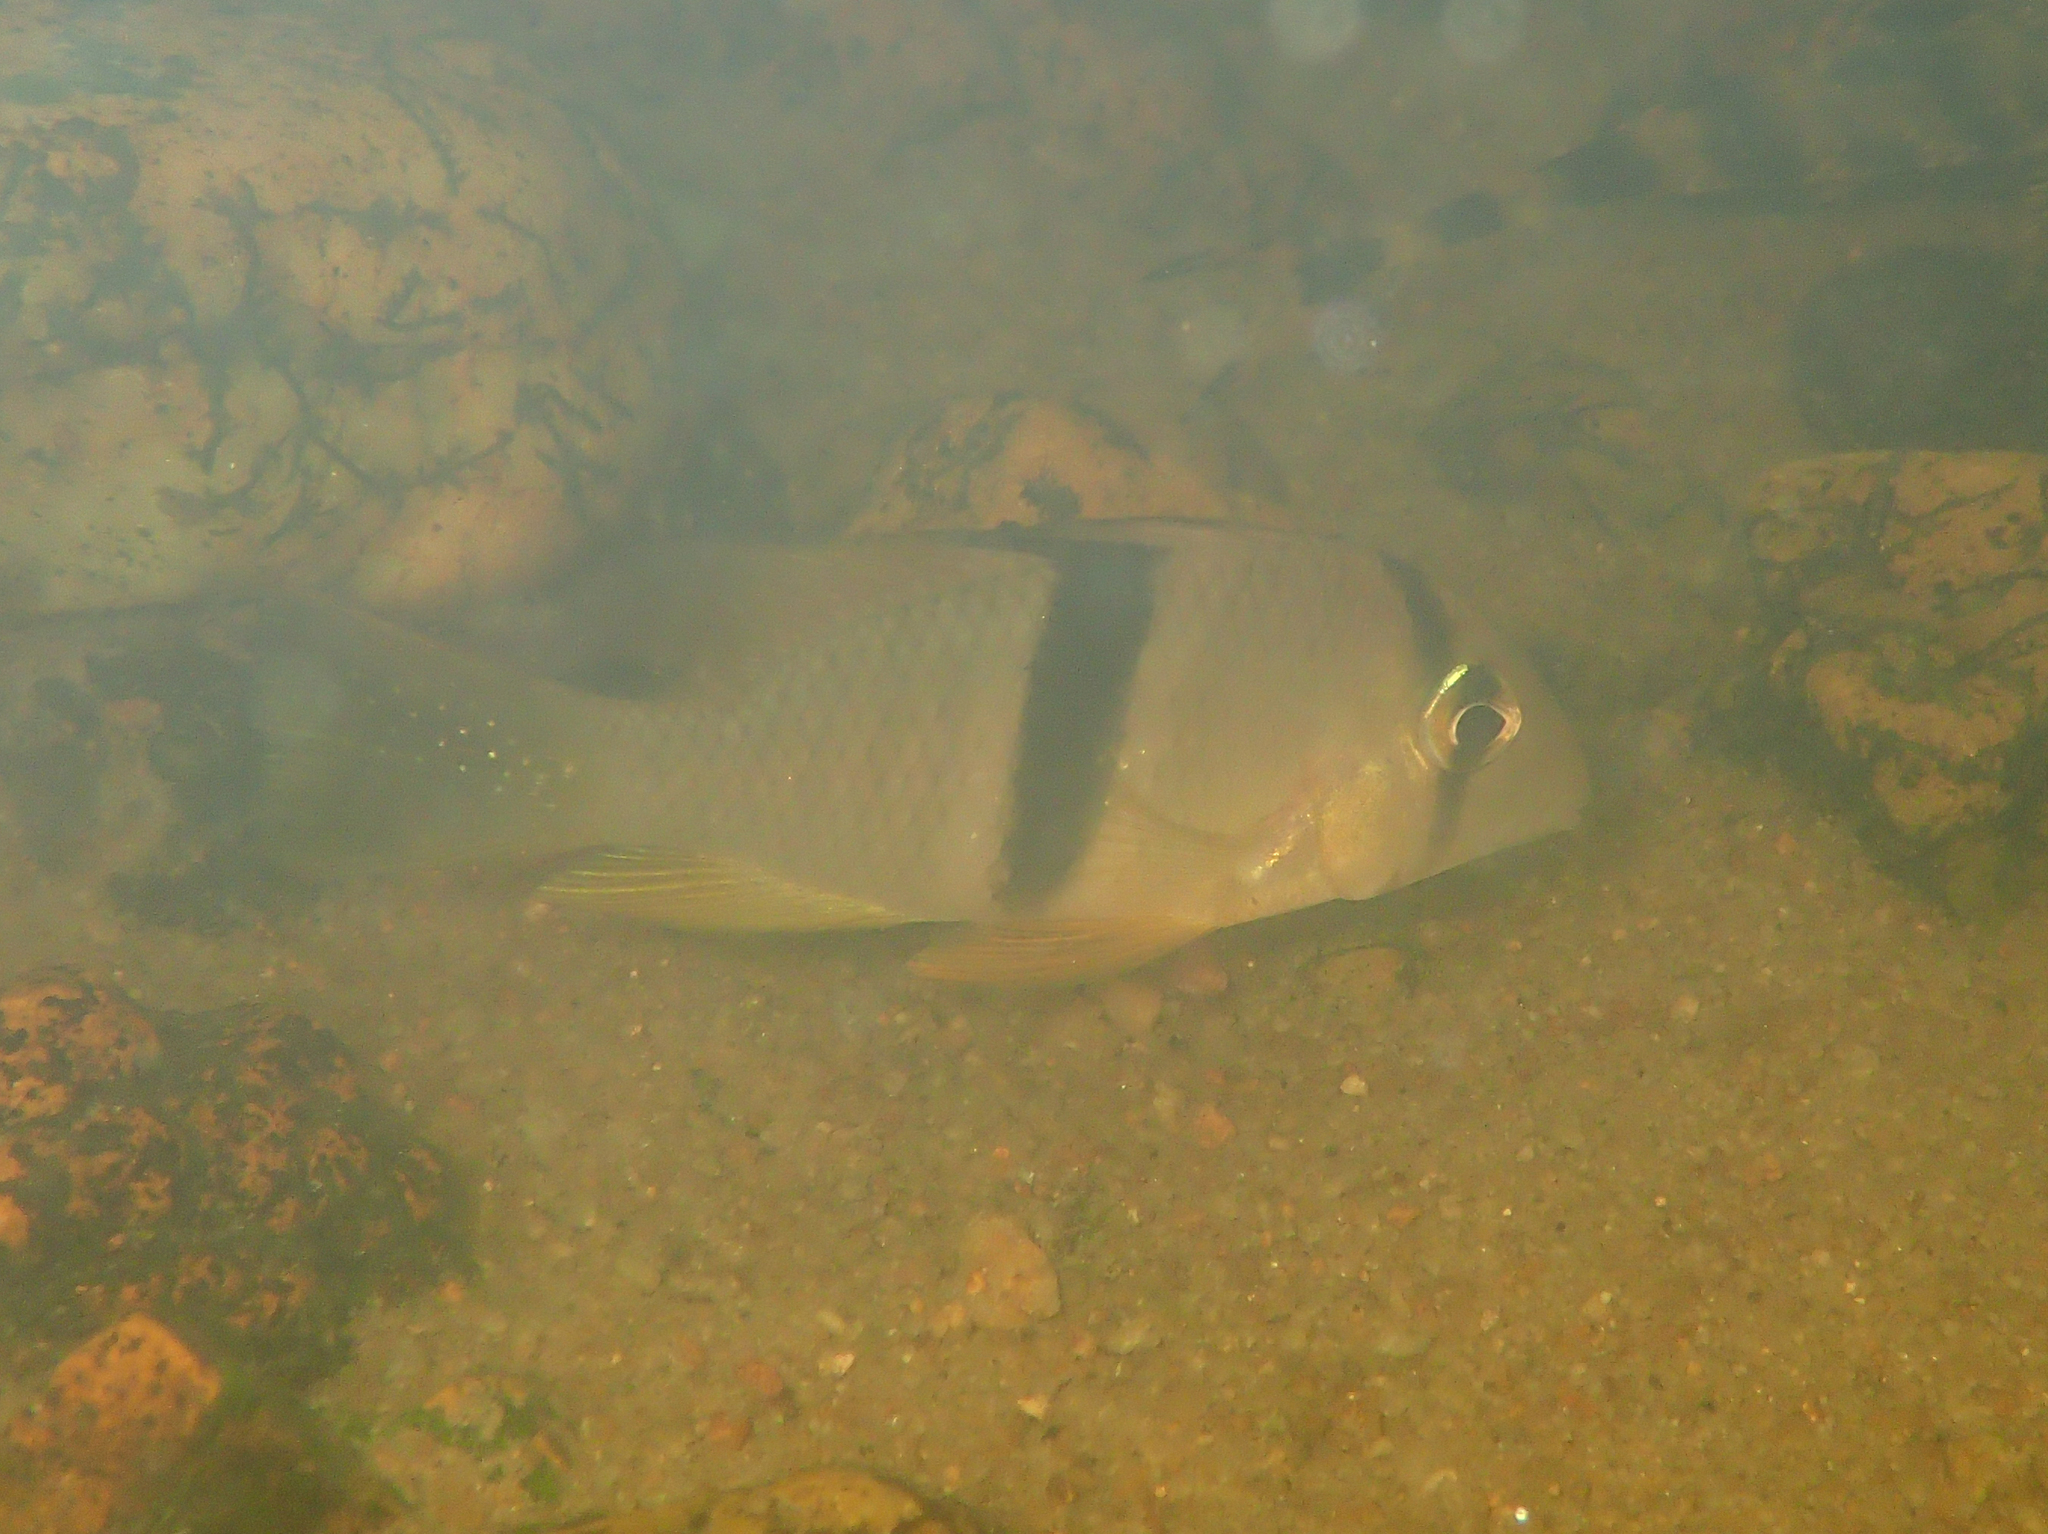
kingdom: Animalia
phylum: Chordata
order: Perciformes
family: Cichlidae
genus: Guianacara
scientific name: Guianacara geayi
